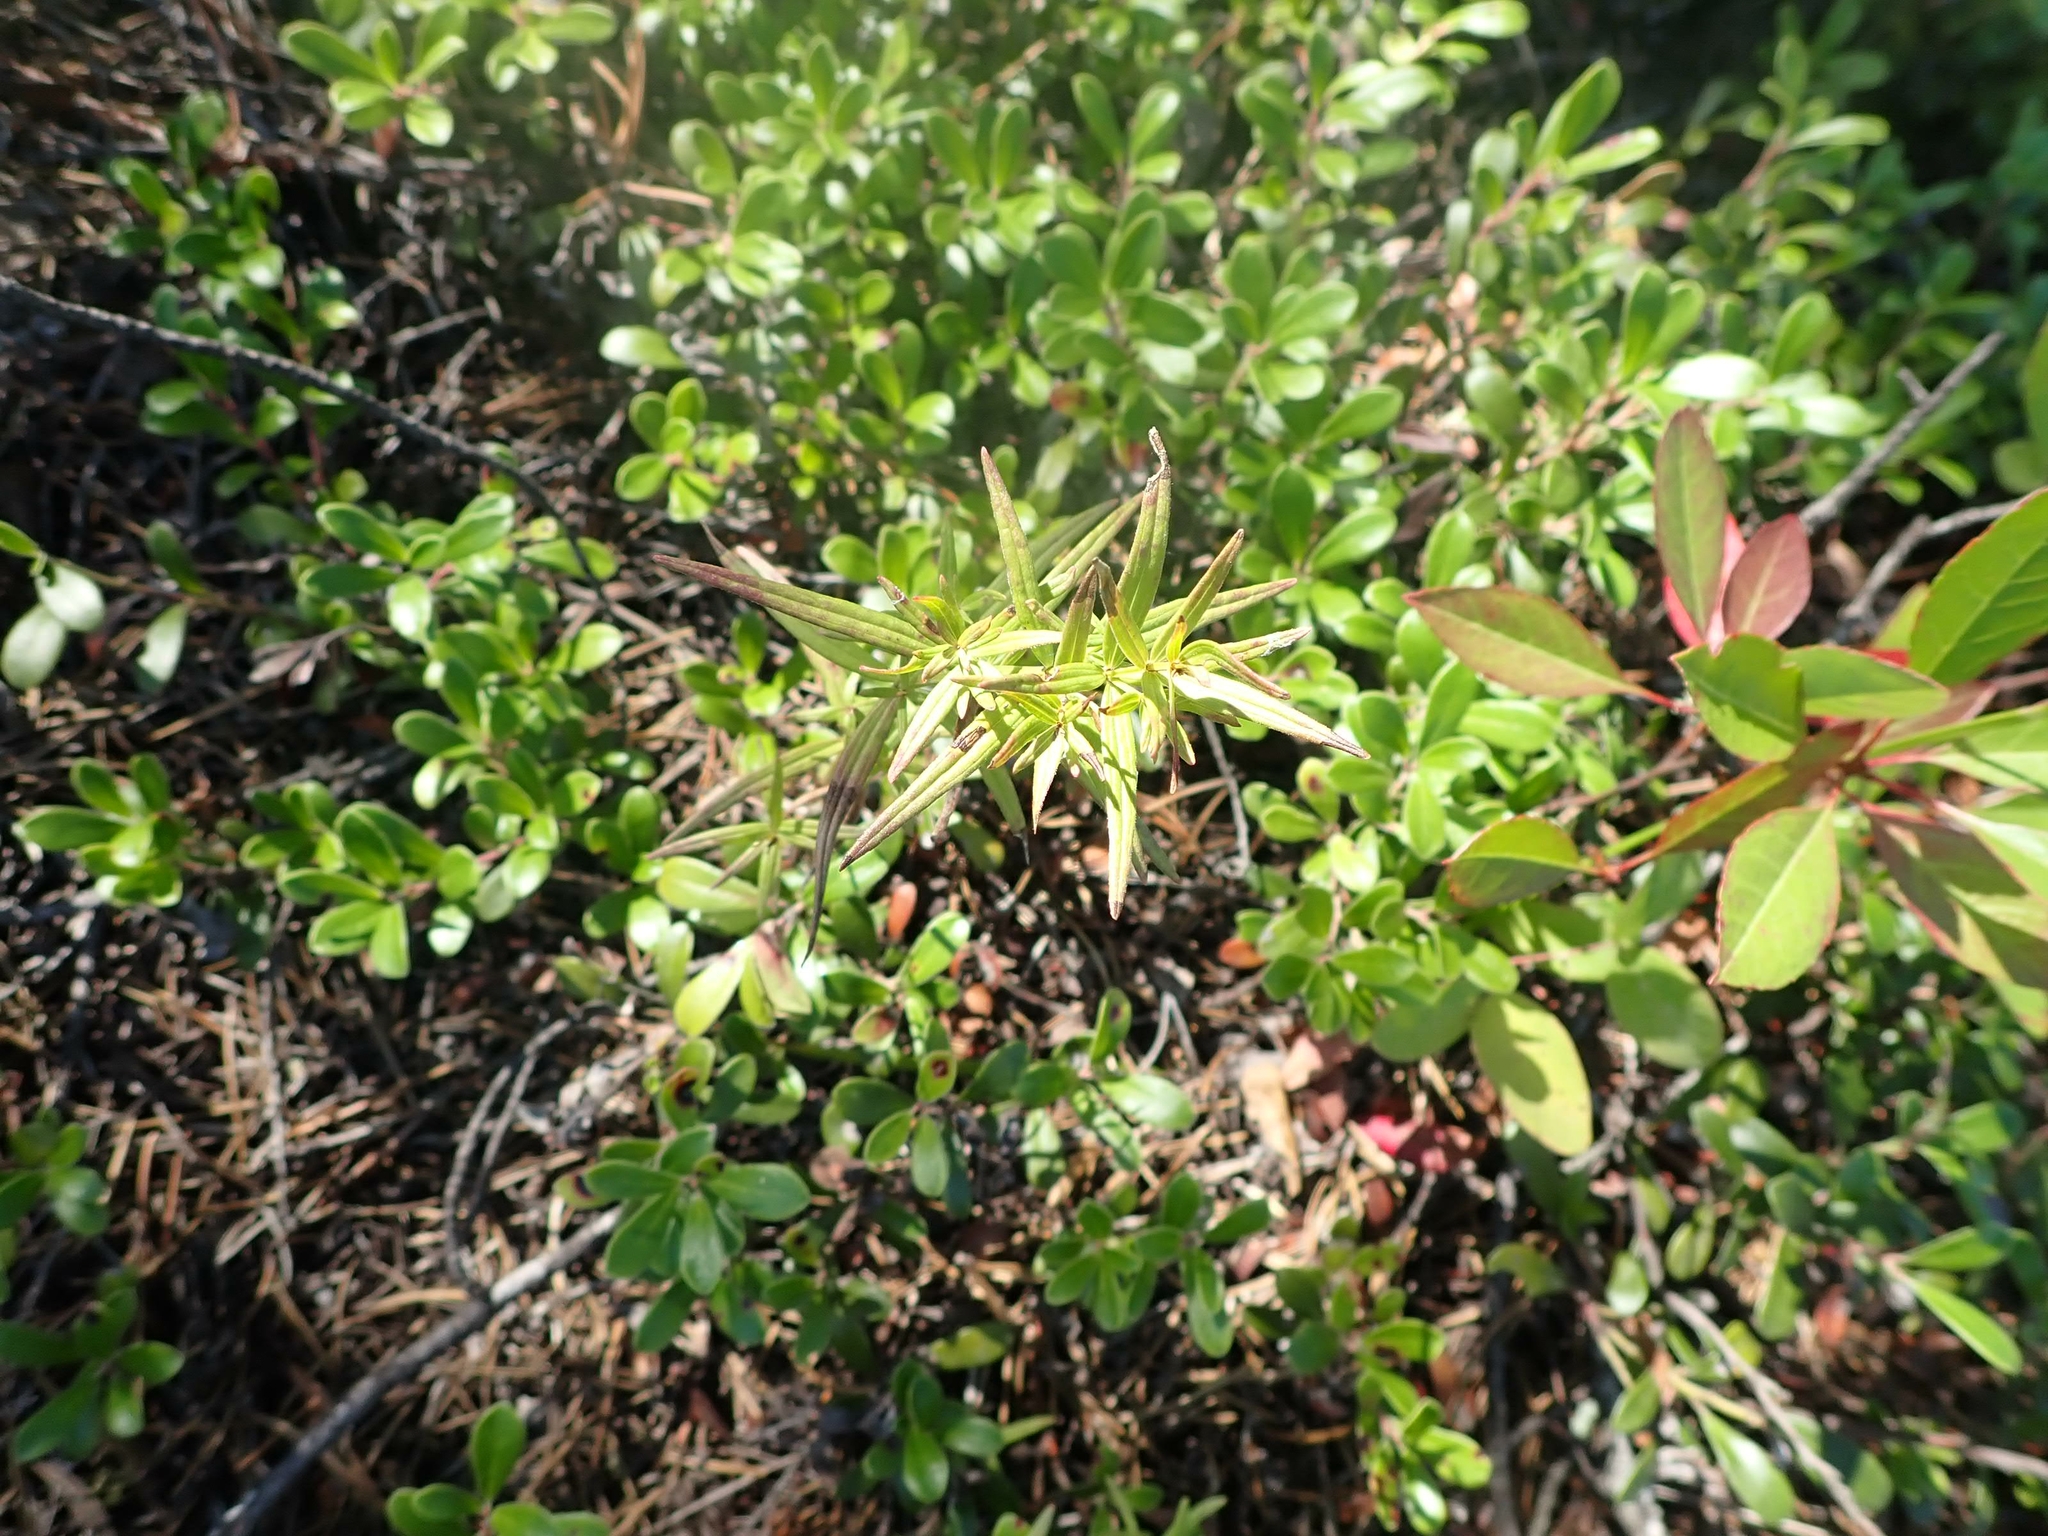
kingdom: Plantae
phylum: Tracheophyta
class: Magnoliopsida
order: Gentianales
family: Rubiaceae
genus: Galium
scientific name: Galium boreale
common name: Northern bedstraw
